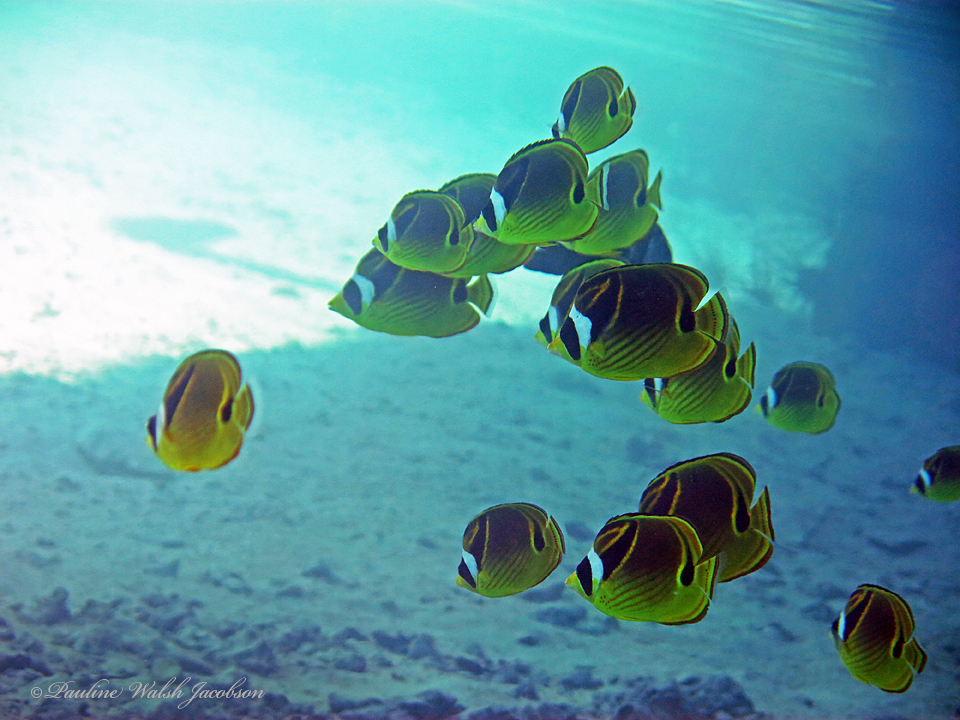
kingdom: Animalia
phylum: Chordata
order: Perciformes
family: Chaetodontidae
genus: Chaetodon
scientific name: Chaetodon lunula
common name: Raccoon butterflyfish
